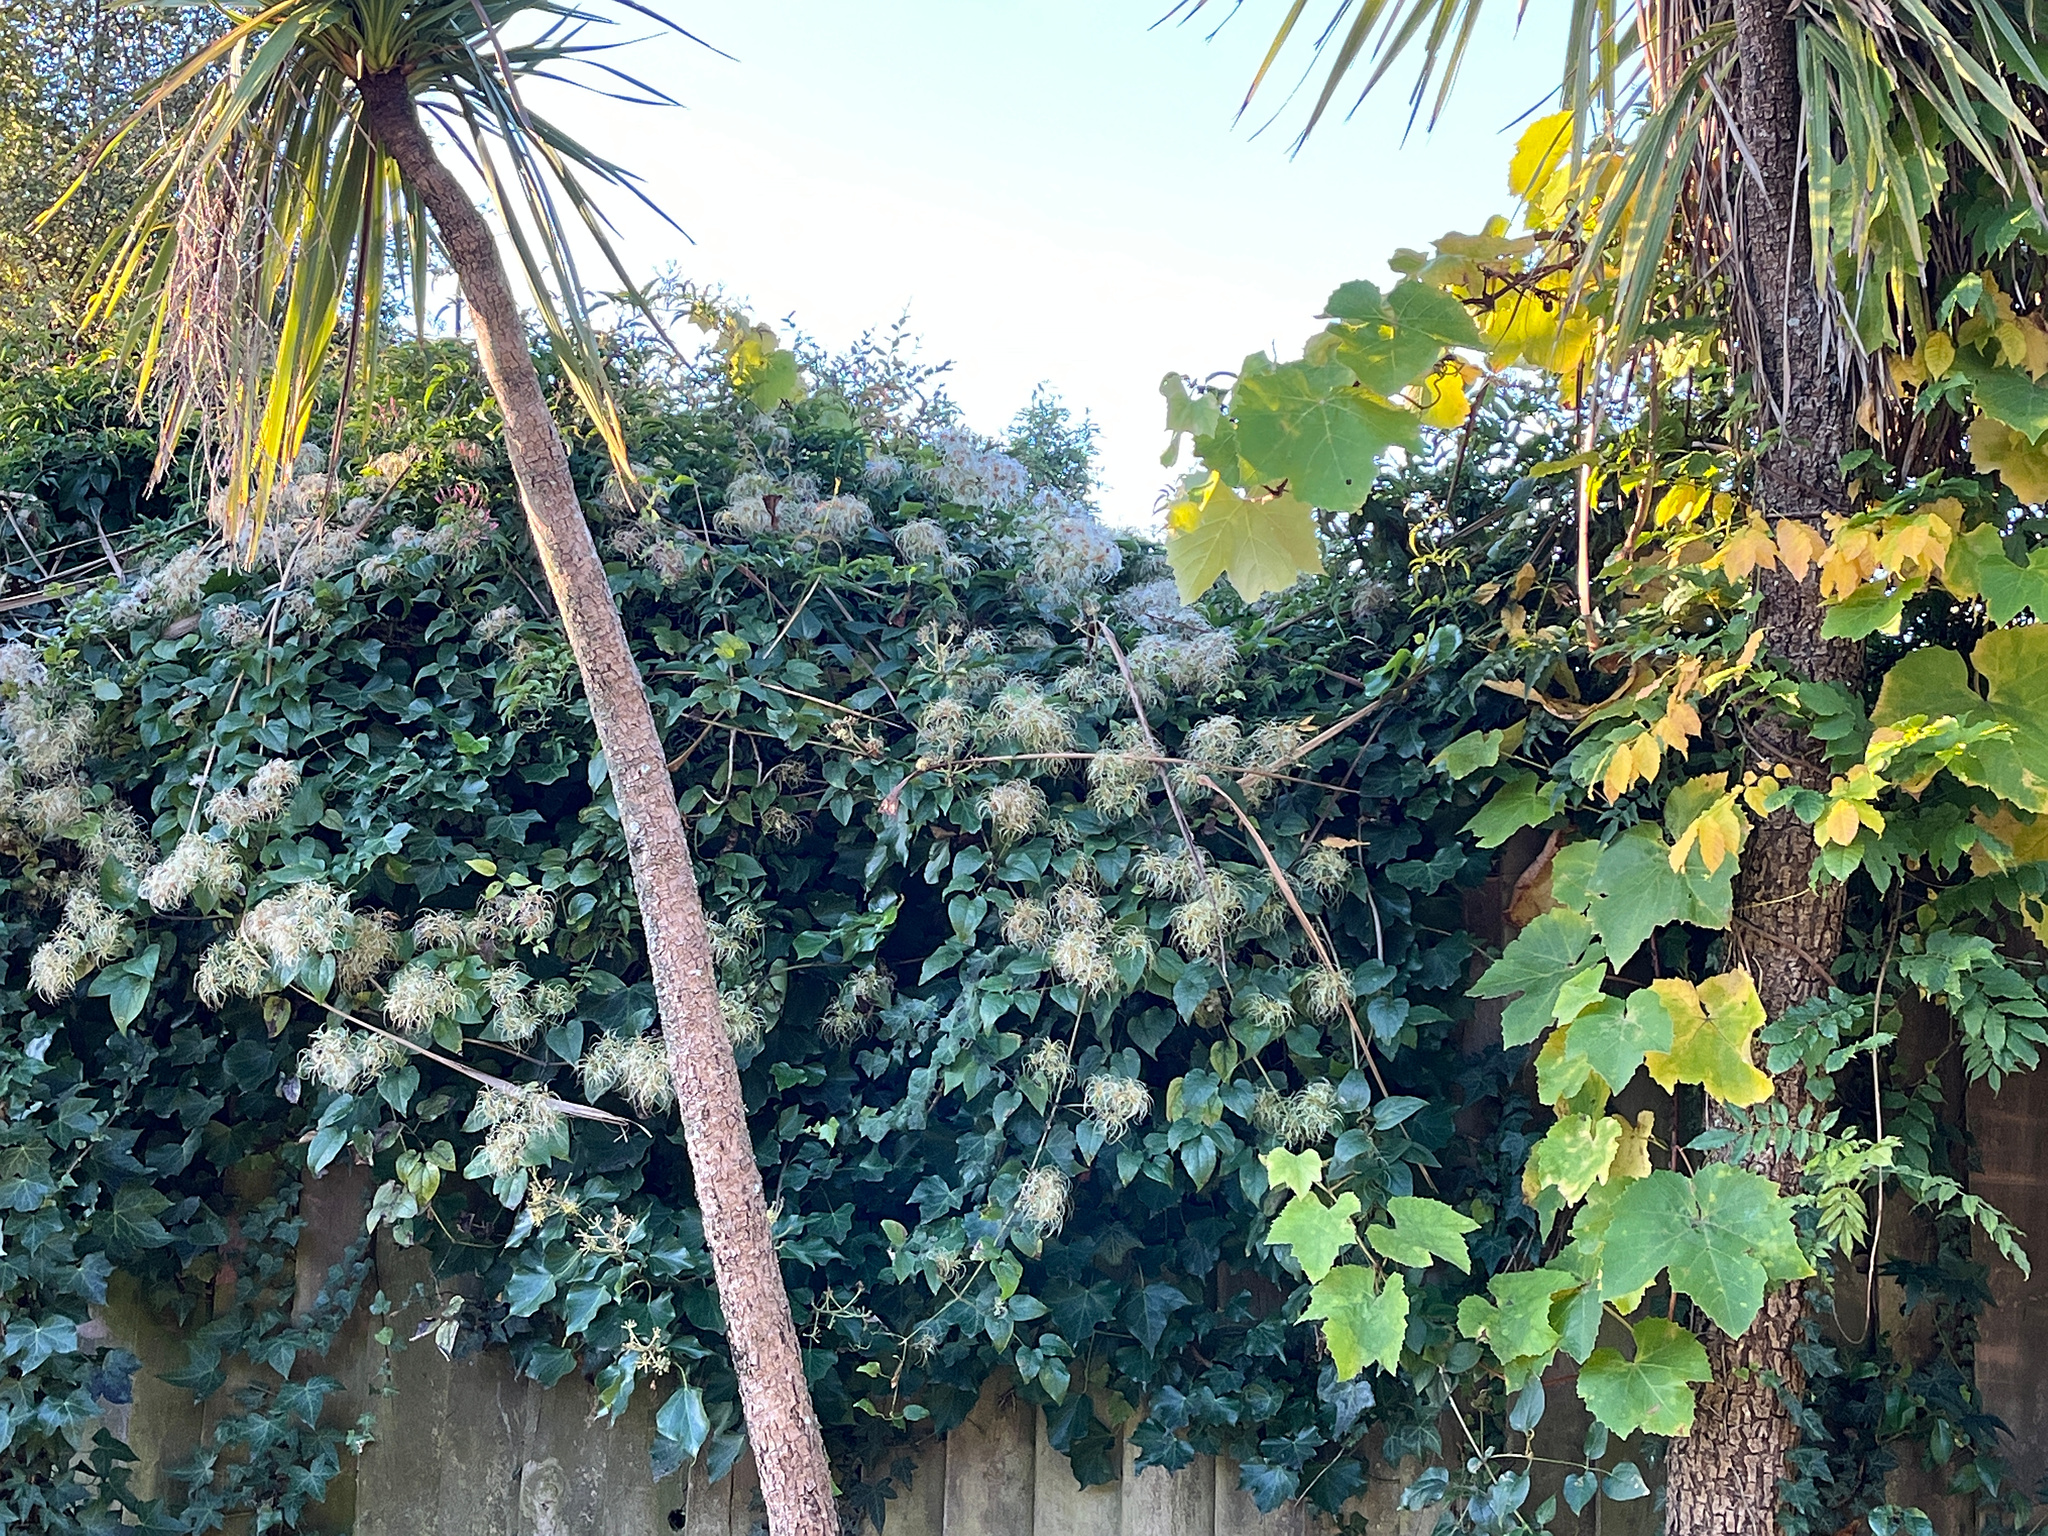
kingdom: Plantae
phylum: Tracheophyta
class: Magnoliopsida
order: Ranunculales
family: Ranunculaceae
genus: Clematis
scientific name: Clematis vitalba
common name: Evergreen clematis
